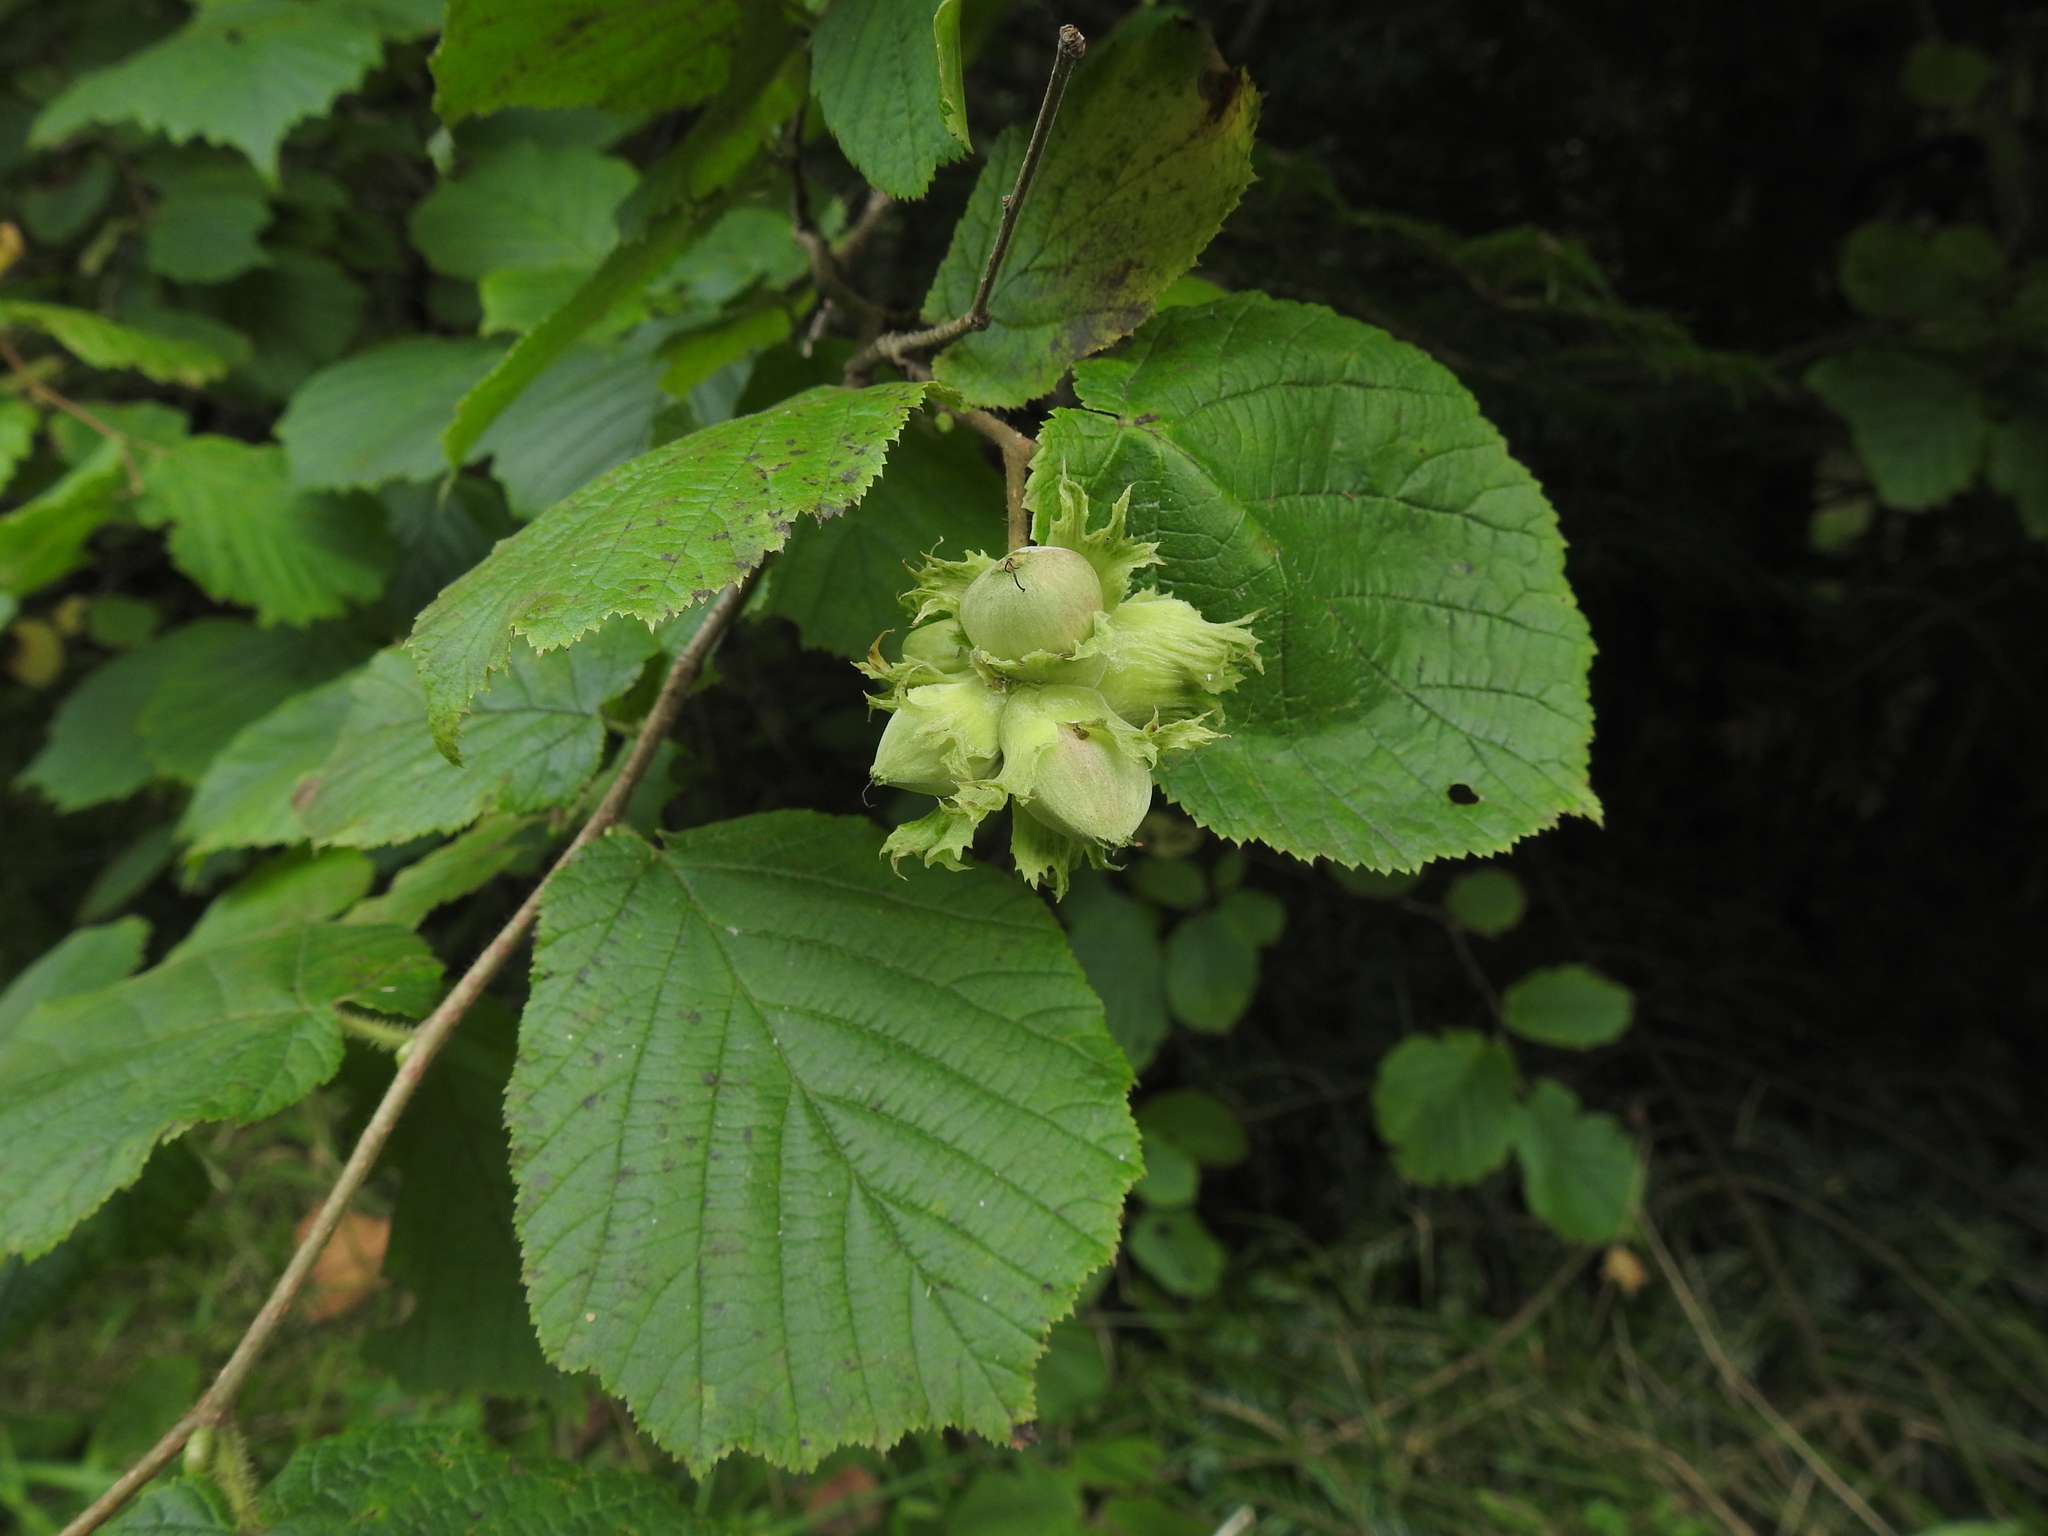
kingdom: Plantae
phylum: Tracheophyta
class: Magnoliopsida
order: Fagales
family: Betulaceae
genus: Corylus
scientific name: Corylus avellana
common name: European hazel
